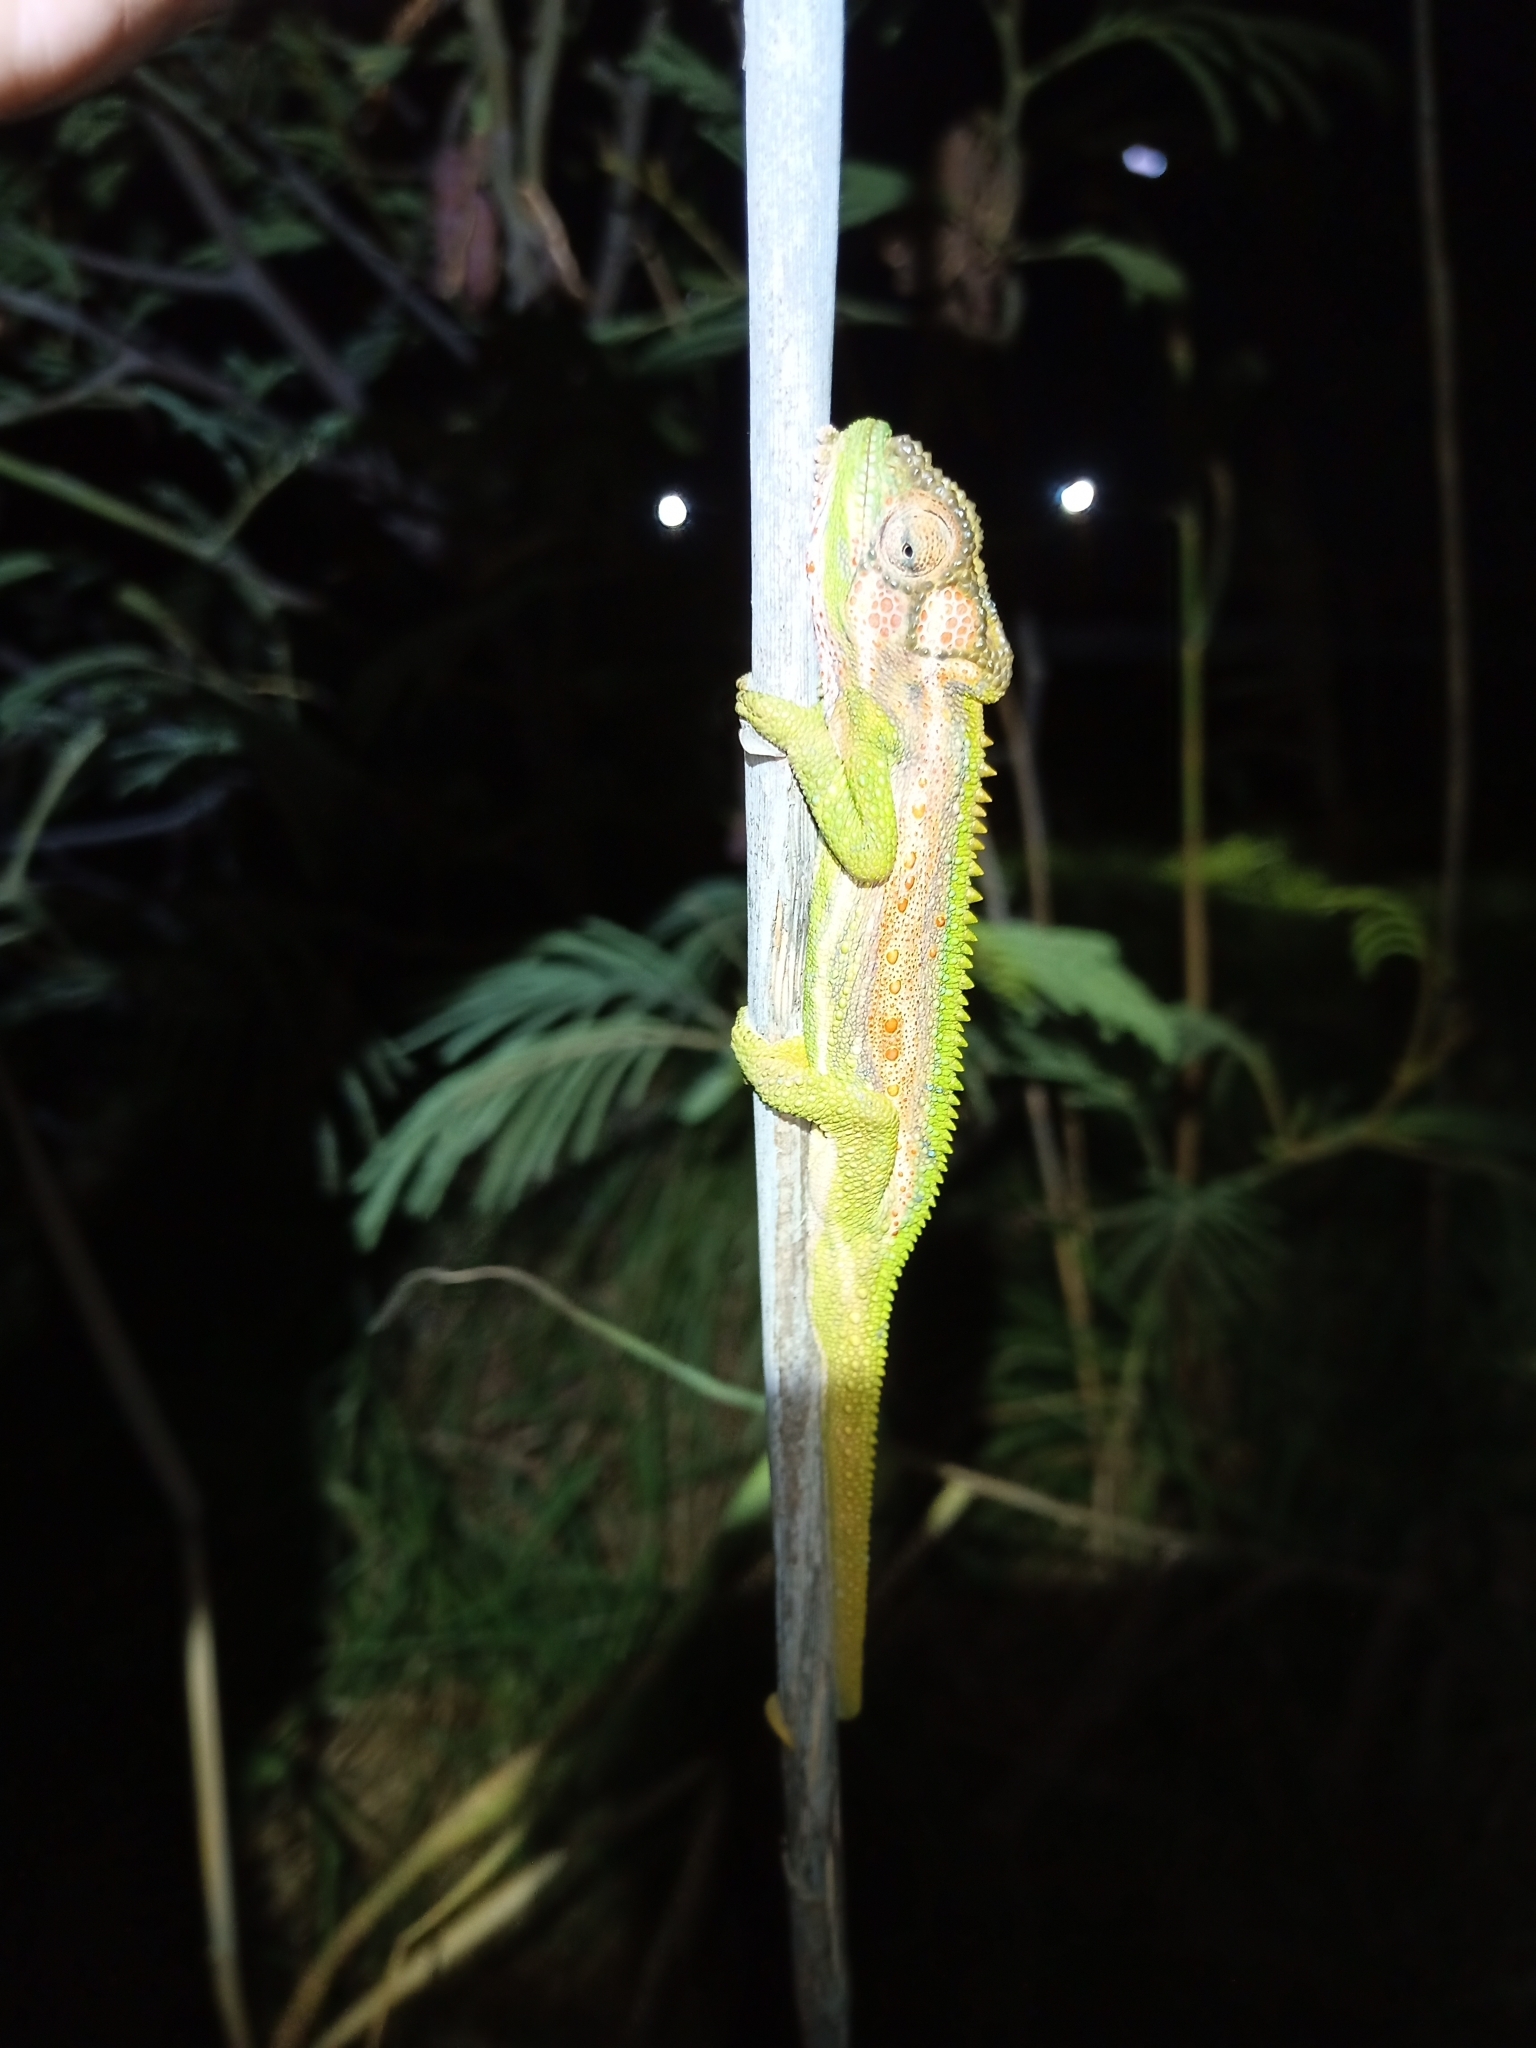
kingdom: Animalia
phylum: Chordata
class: Squamata
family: Chamaeleonidae
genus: Bradypodion
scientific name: Bradypodion pumilum
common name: Cape dwarf chameleon
